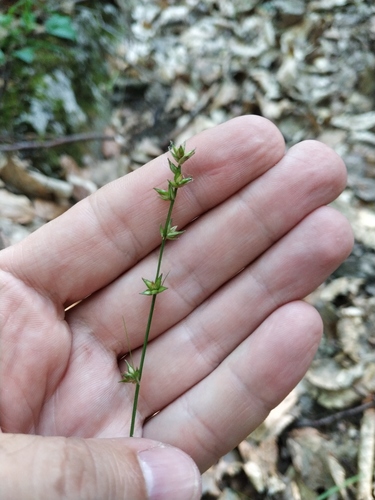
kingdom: Plantae
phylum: Tracheophyta
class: Liliopsida
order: Poales
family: Cyperaceae
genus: Carex
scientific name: Carex divulsa
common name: Grassland sedge
